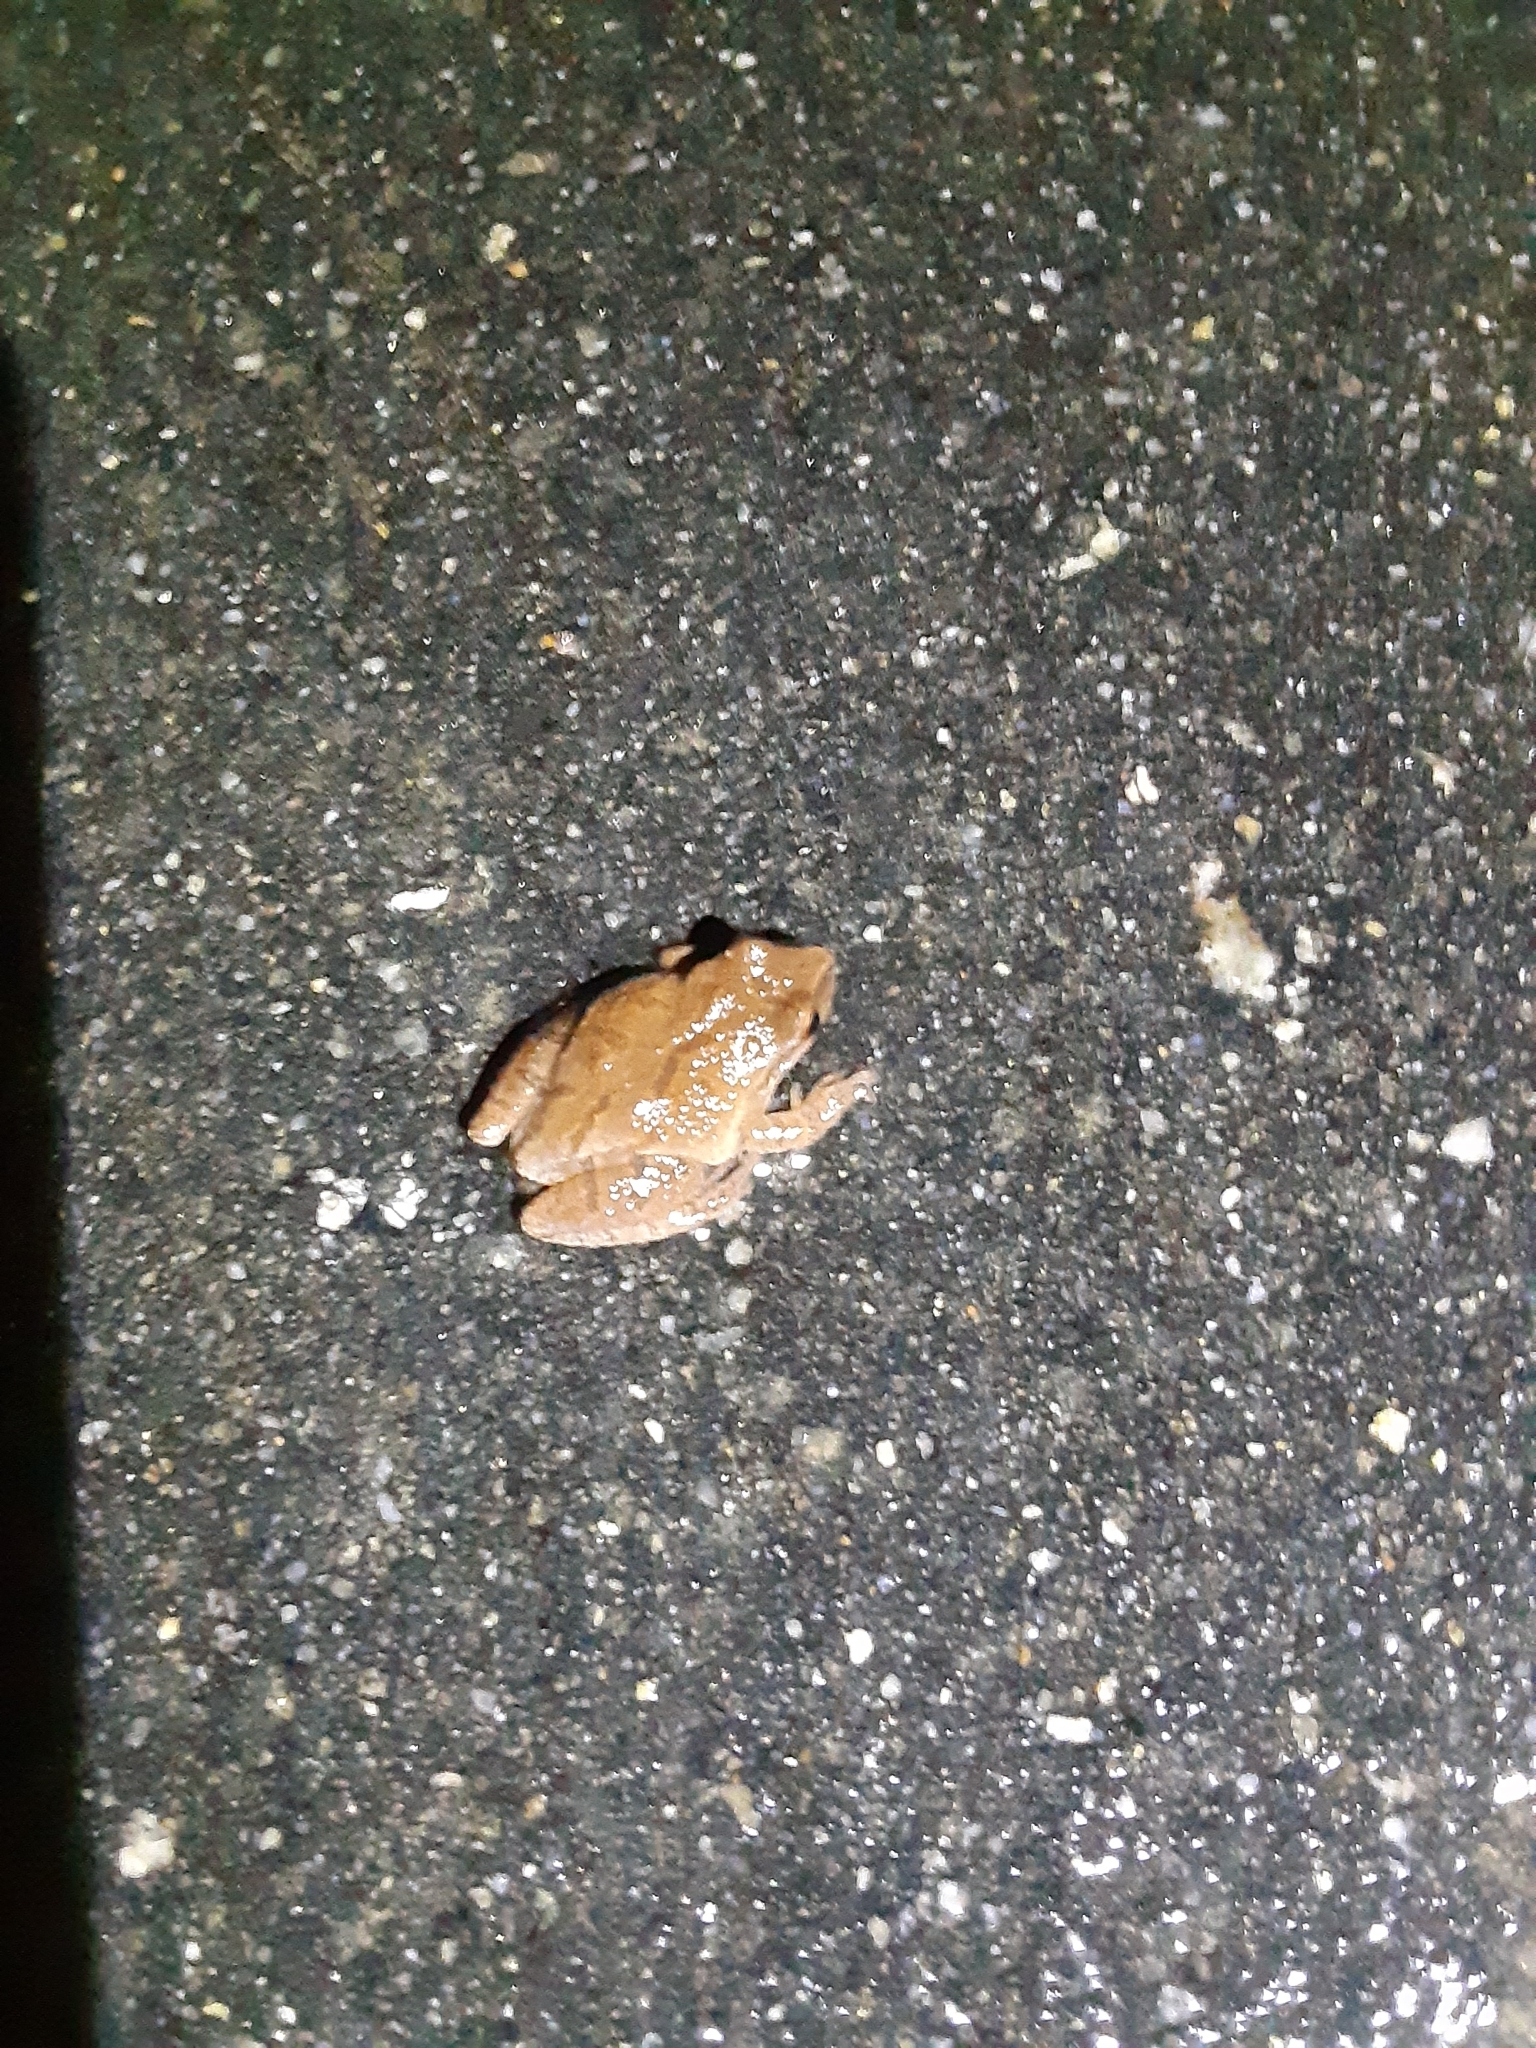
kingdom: Animalia
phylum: Chordata
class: Amphibia
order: Anura
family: Hylidae
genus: Pseudacris
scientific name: Pseudacris crucifer
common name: Spring peeper
